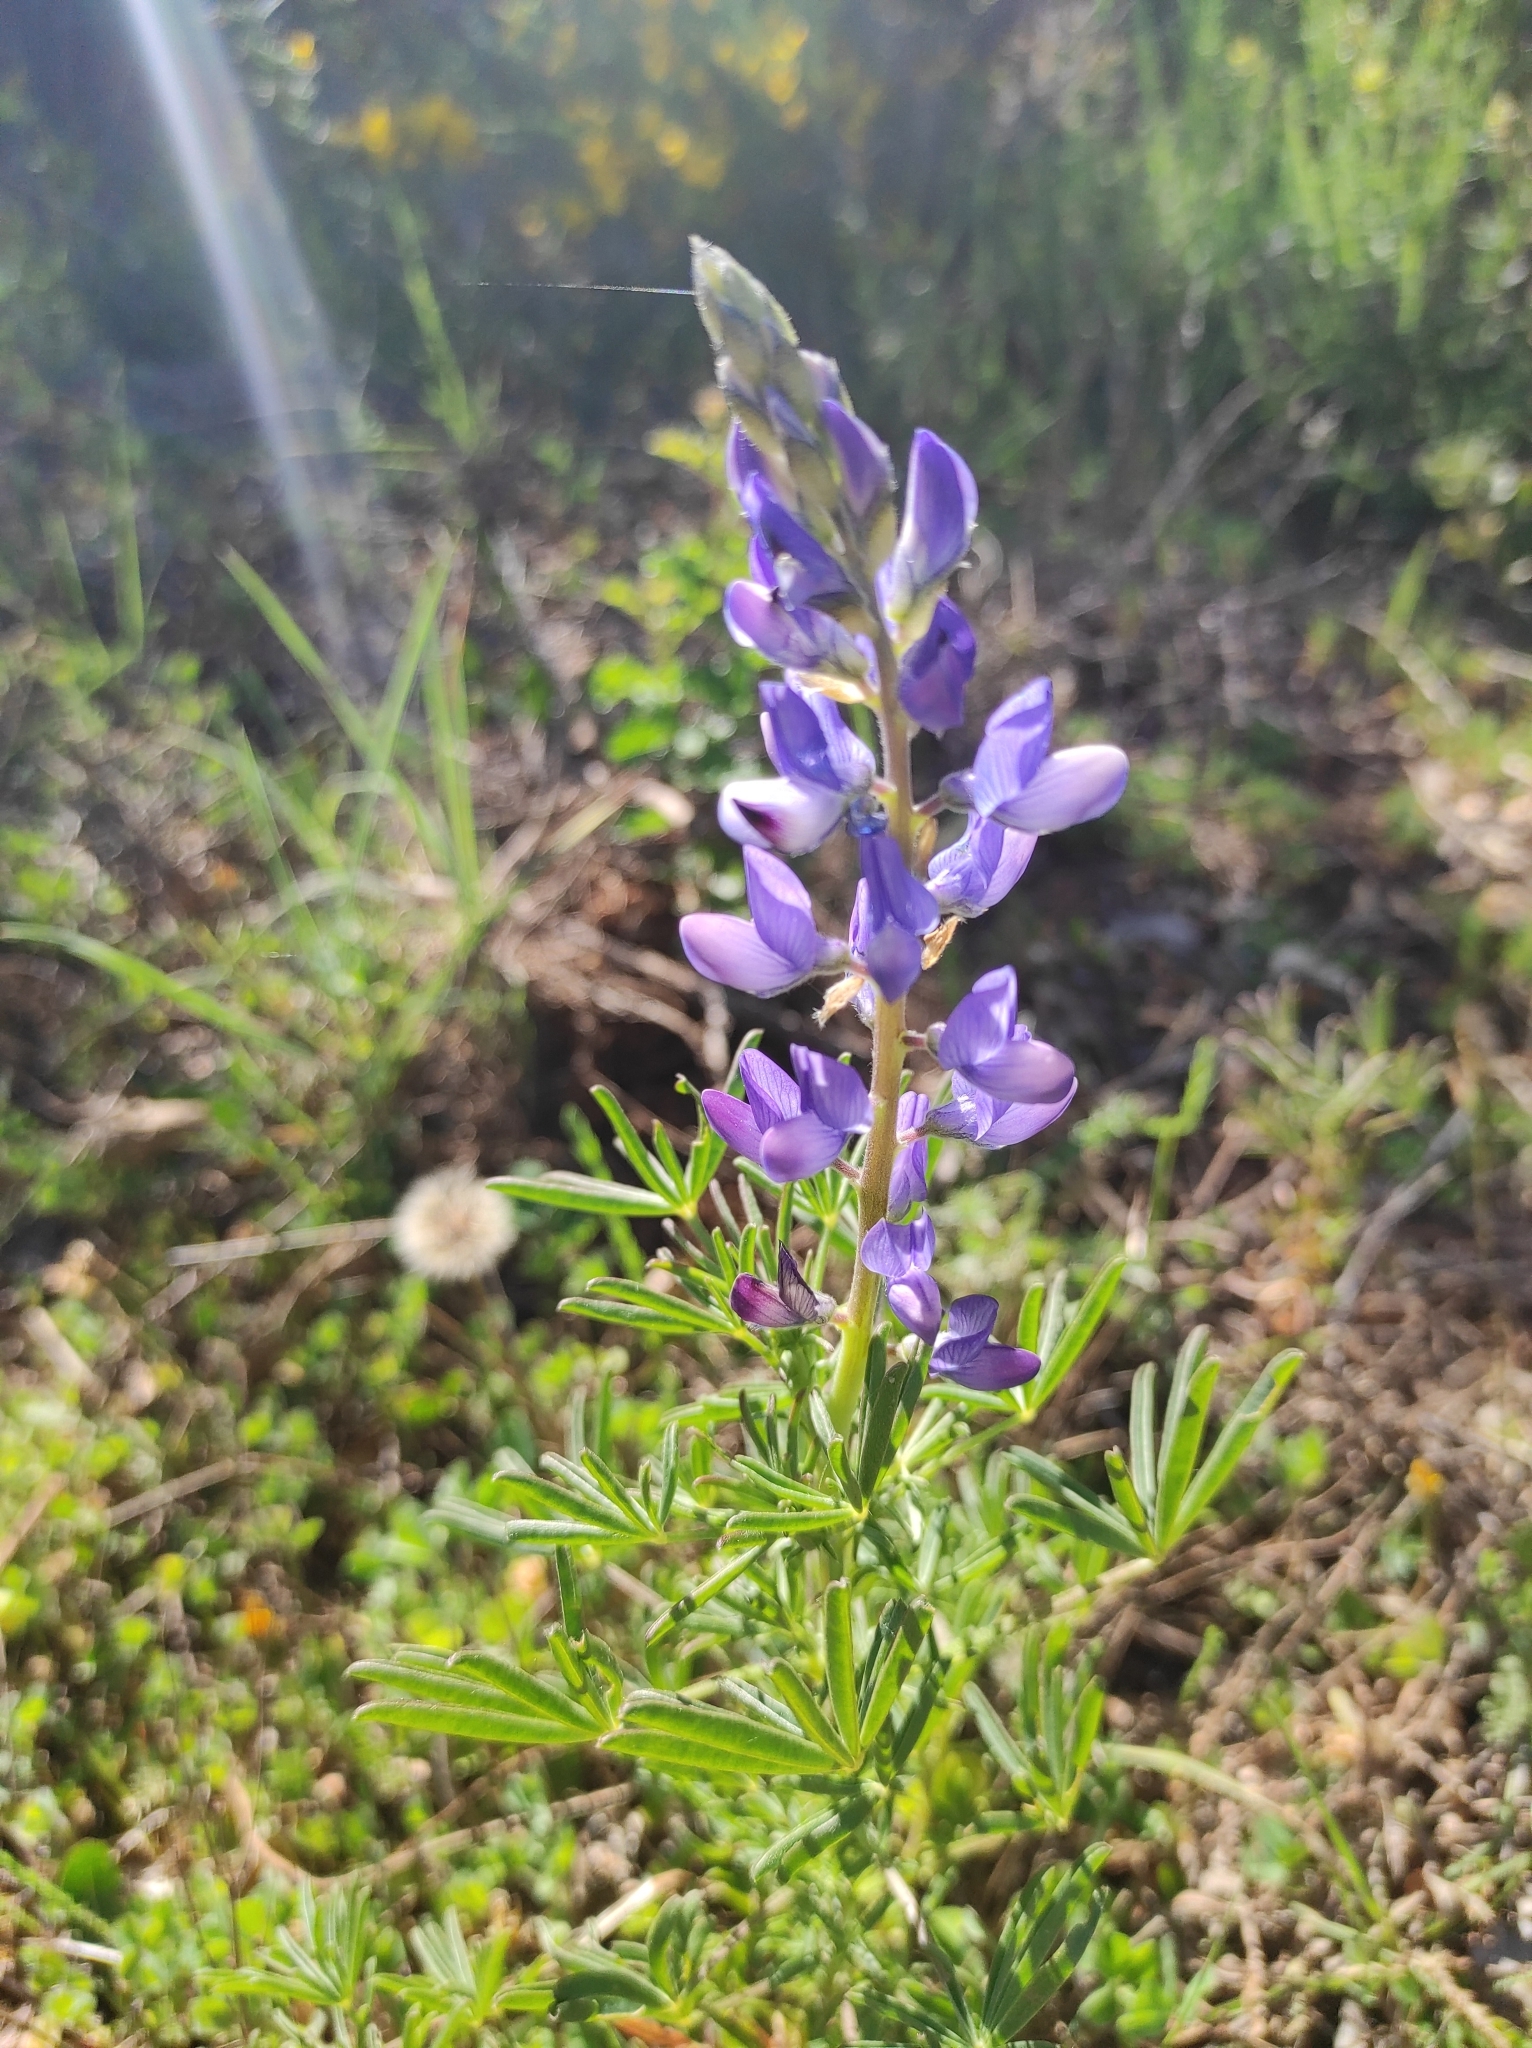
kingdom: Plantae
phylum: Tracheophyta
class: Magnoliopsida
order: Fabales
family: Fabaceae
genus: Lupinus
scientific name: Lupinus angustifolius
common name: Narrow-leaved lupin
